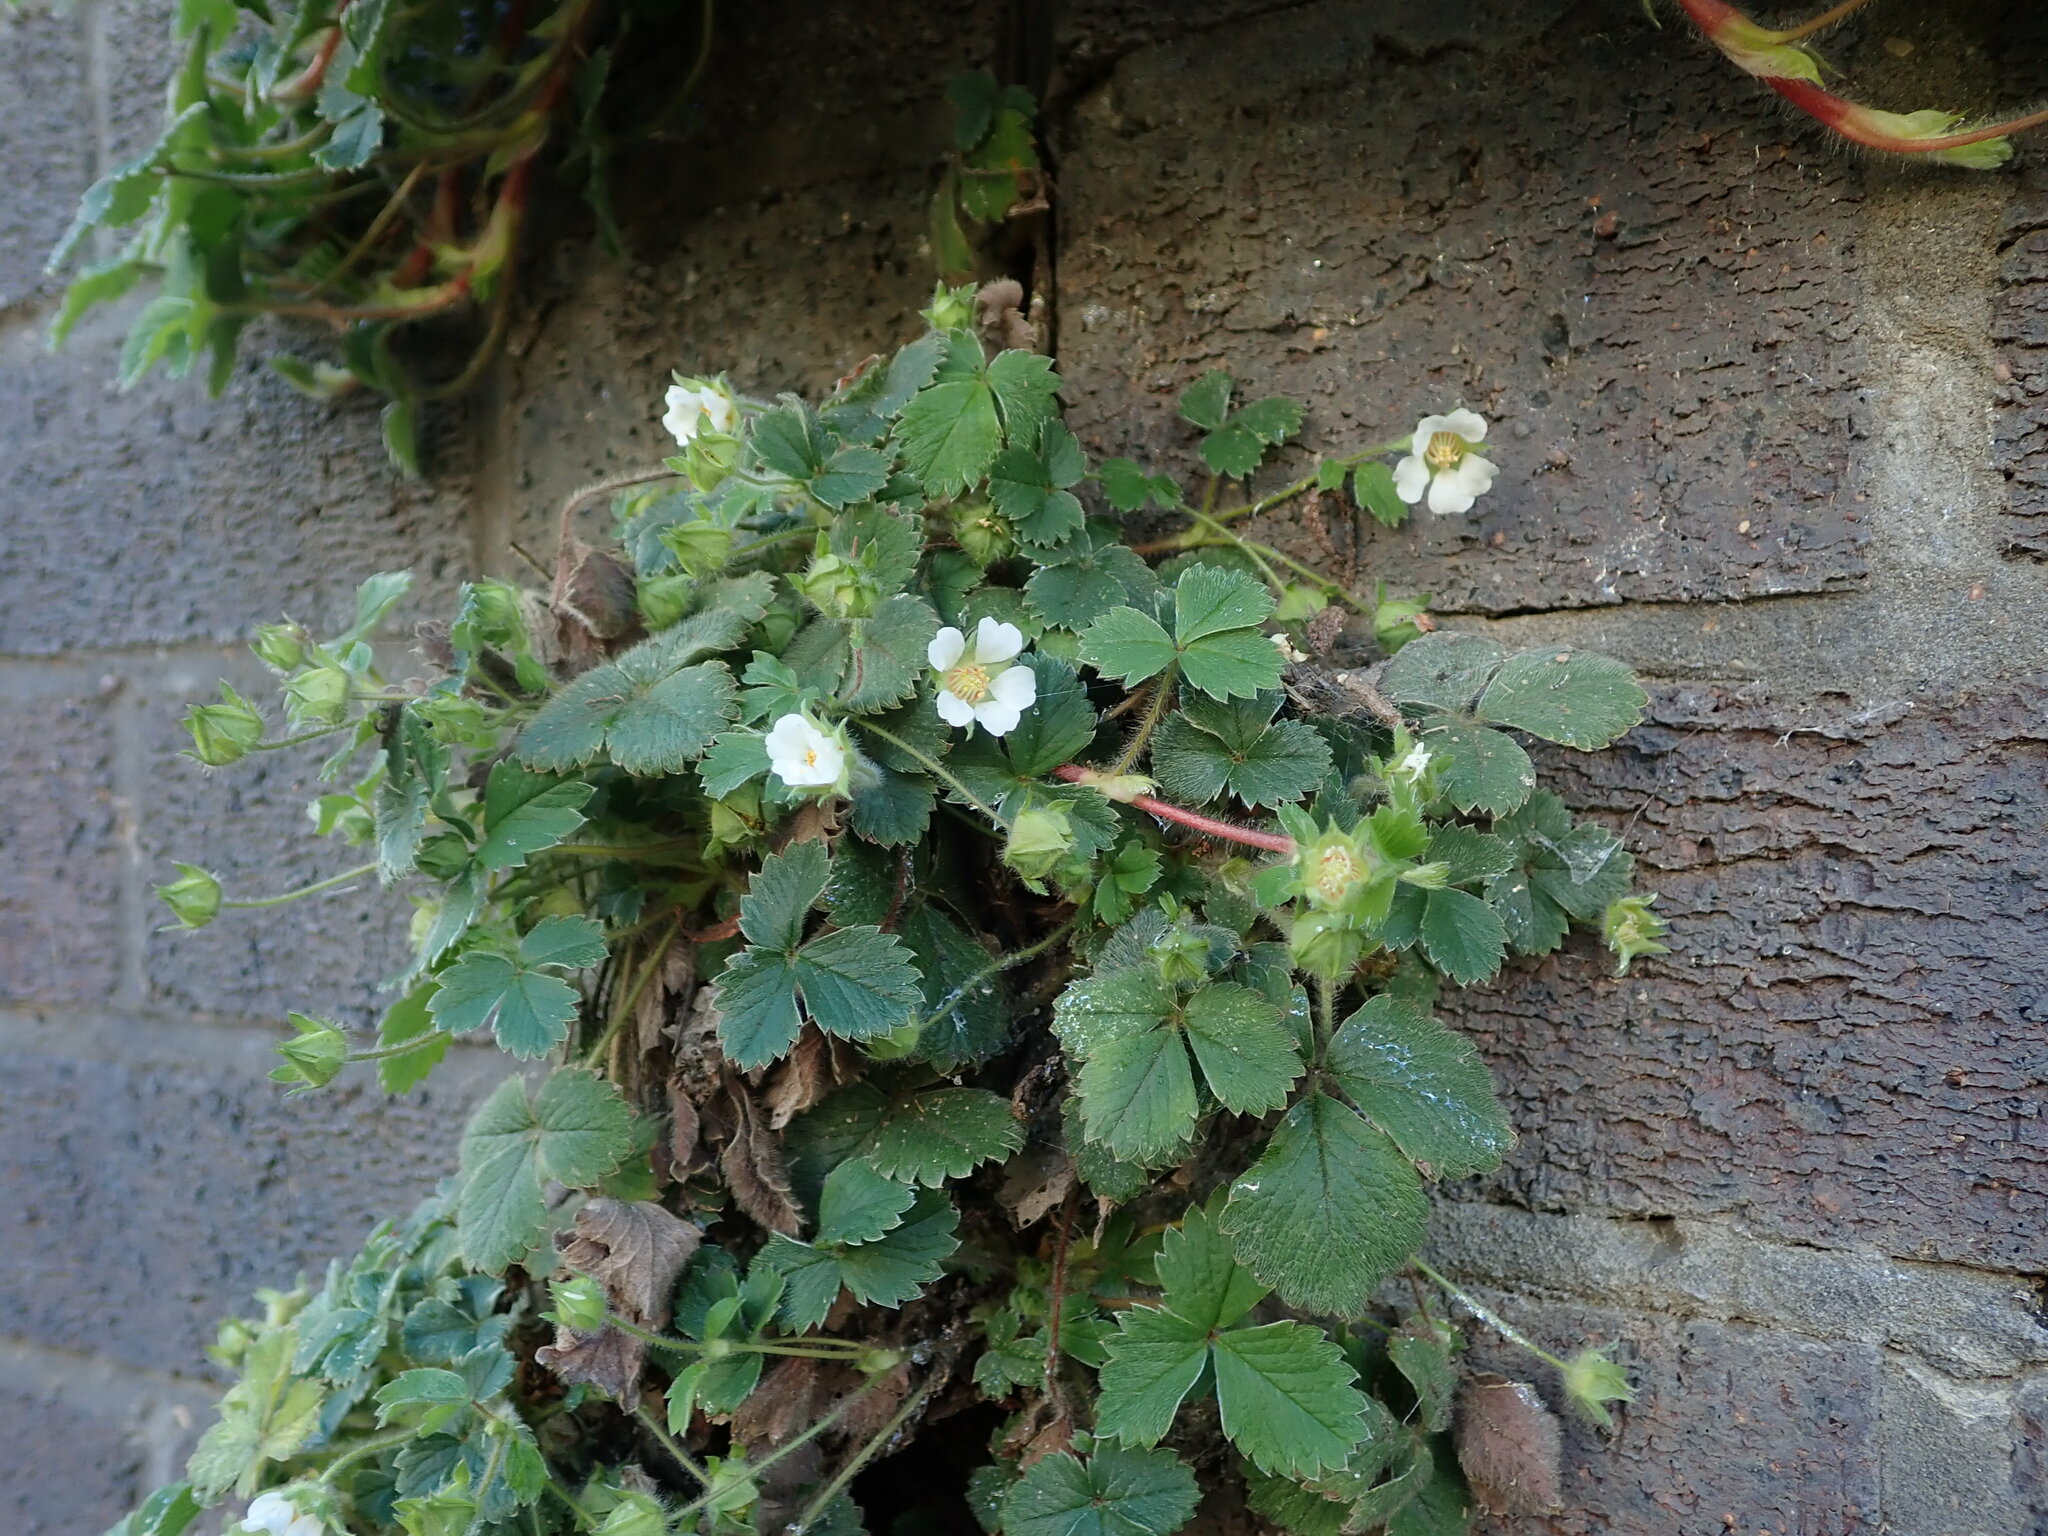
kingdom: Plantae
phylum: Tracheophyta
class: Magnoliopsida
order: Rosales
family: Rosaceae
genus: Potentilla
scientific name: Potentilla sterilis
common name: Barren strawberry
